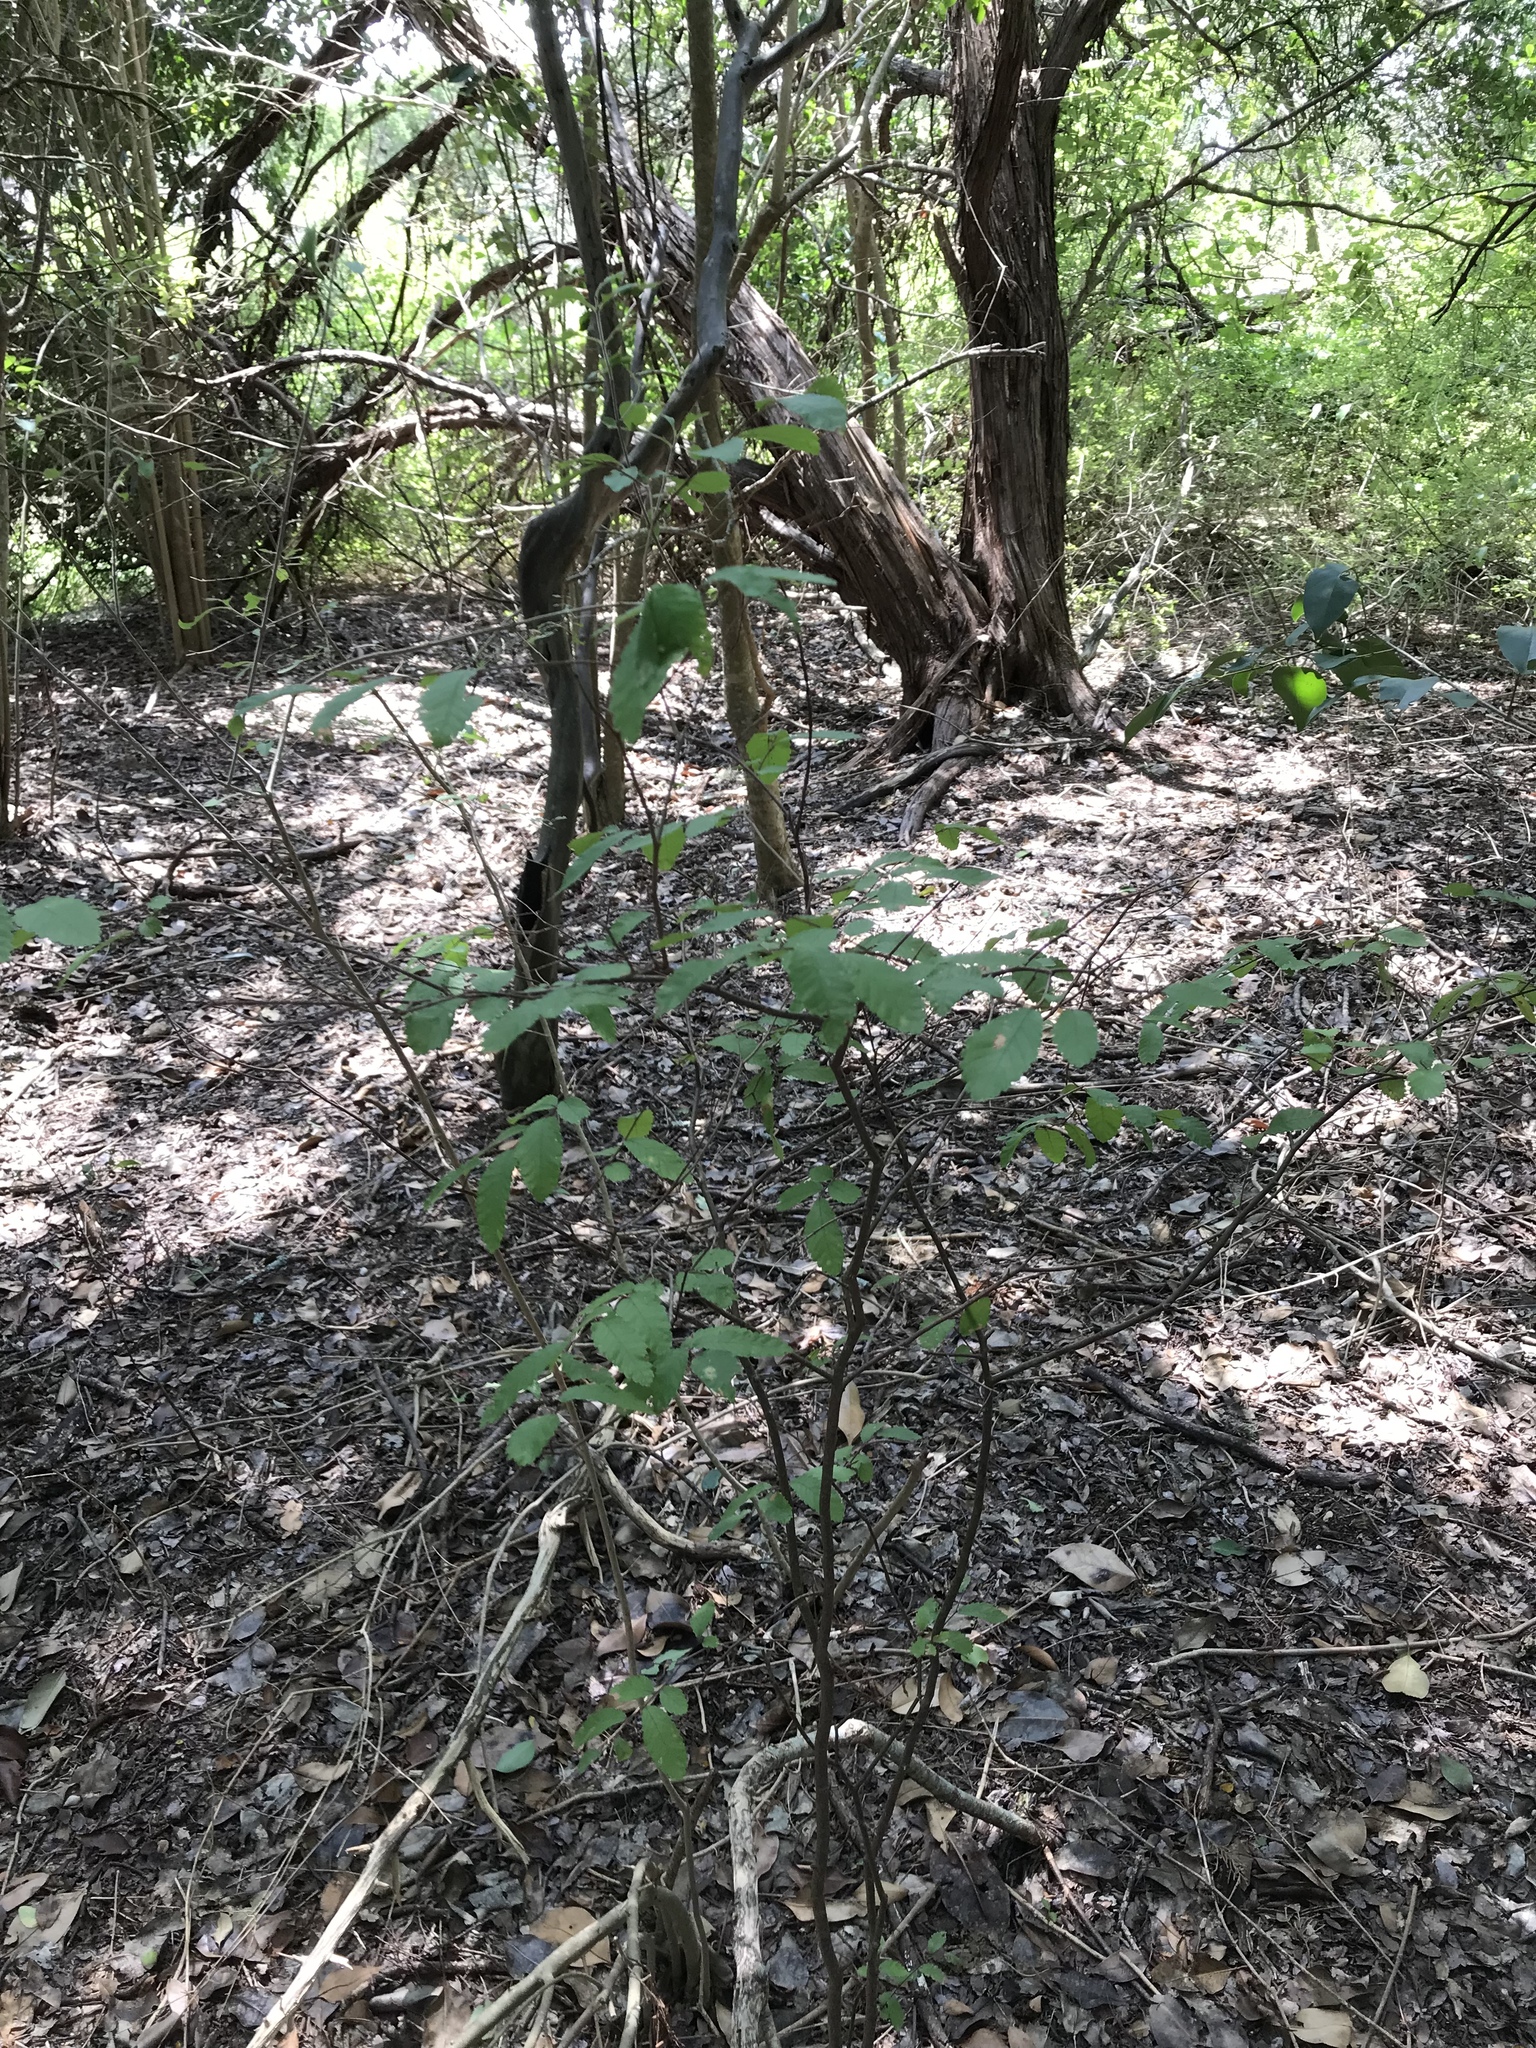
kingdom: Plantae
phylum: Tracheophyta
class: Magnoliopsida
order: Rosales
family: Ulmaceae
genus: Ulmus
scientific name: Ulmus crassifolia
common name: Basket elm
